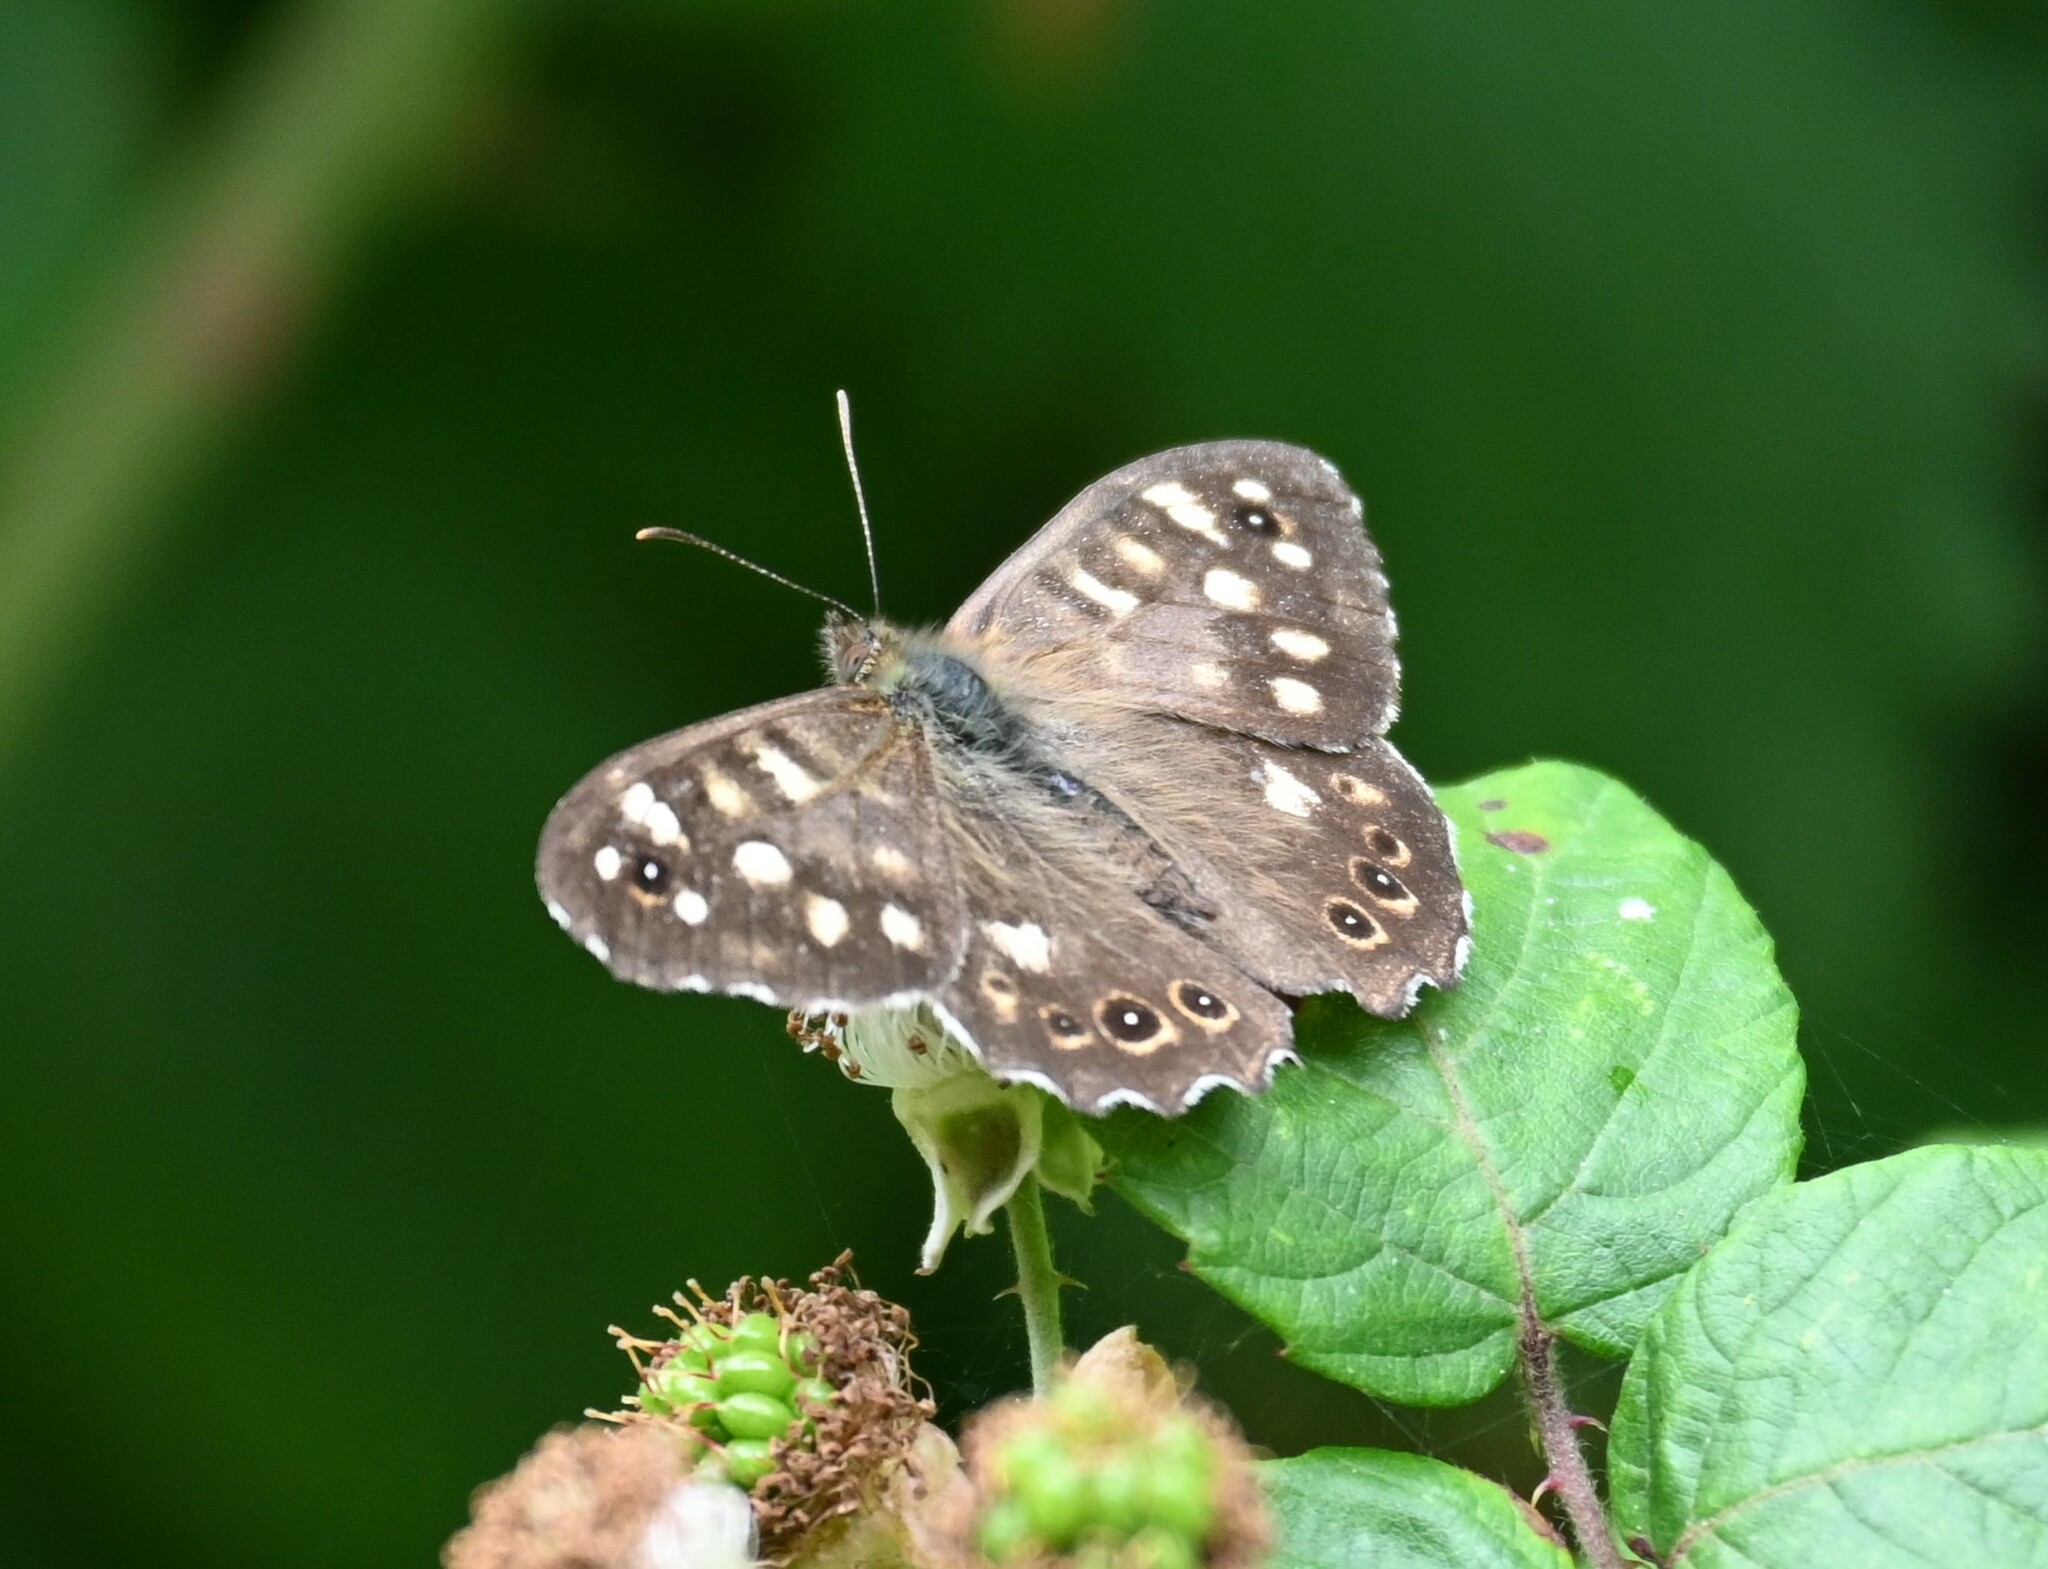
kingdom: Animalia
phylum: Arthropoda
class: Insecta
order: Lepidoptera
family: Nymphalidae
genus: Pararge
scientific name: Pararge aegeria
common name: Speckled wood
